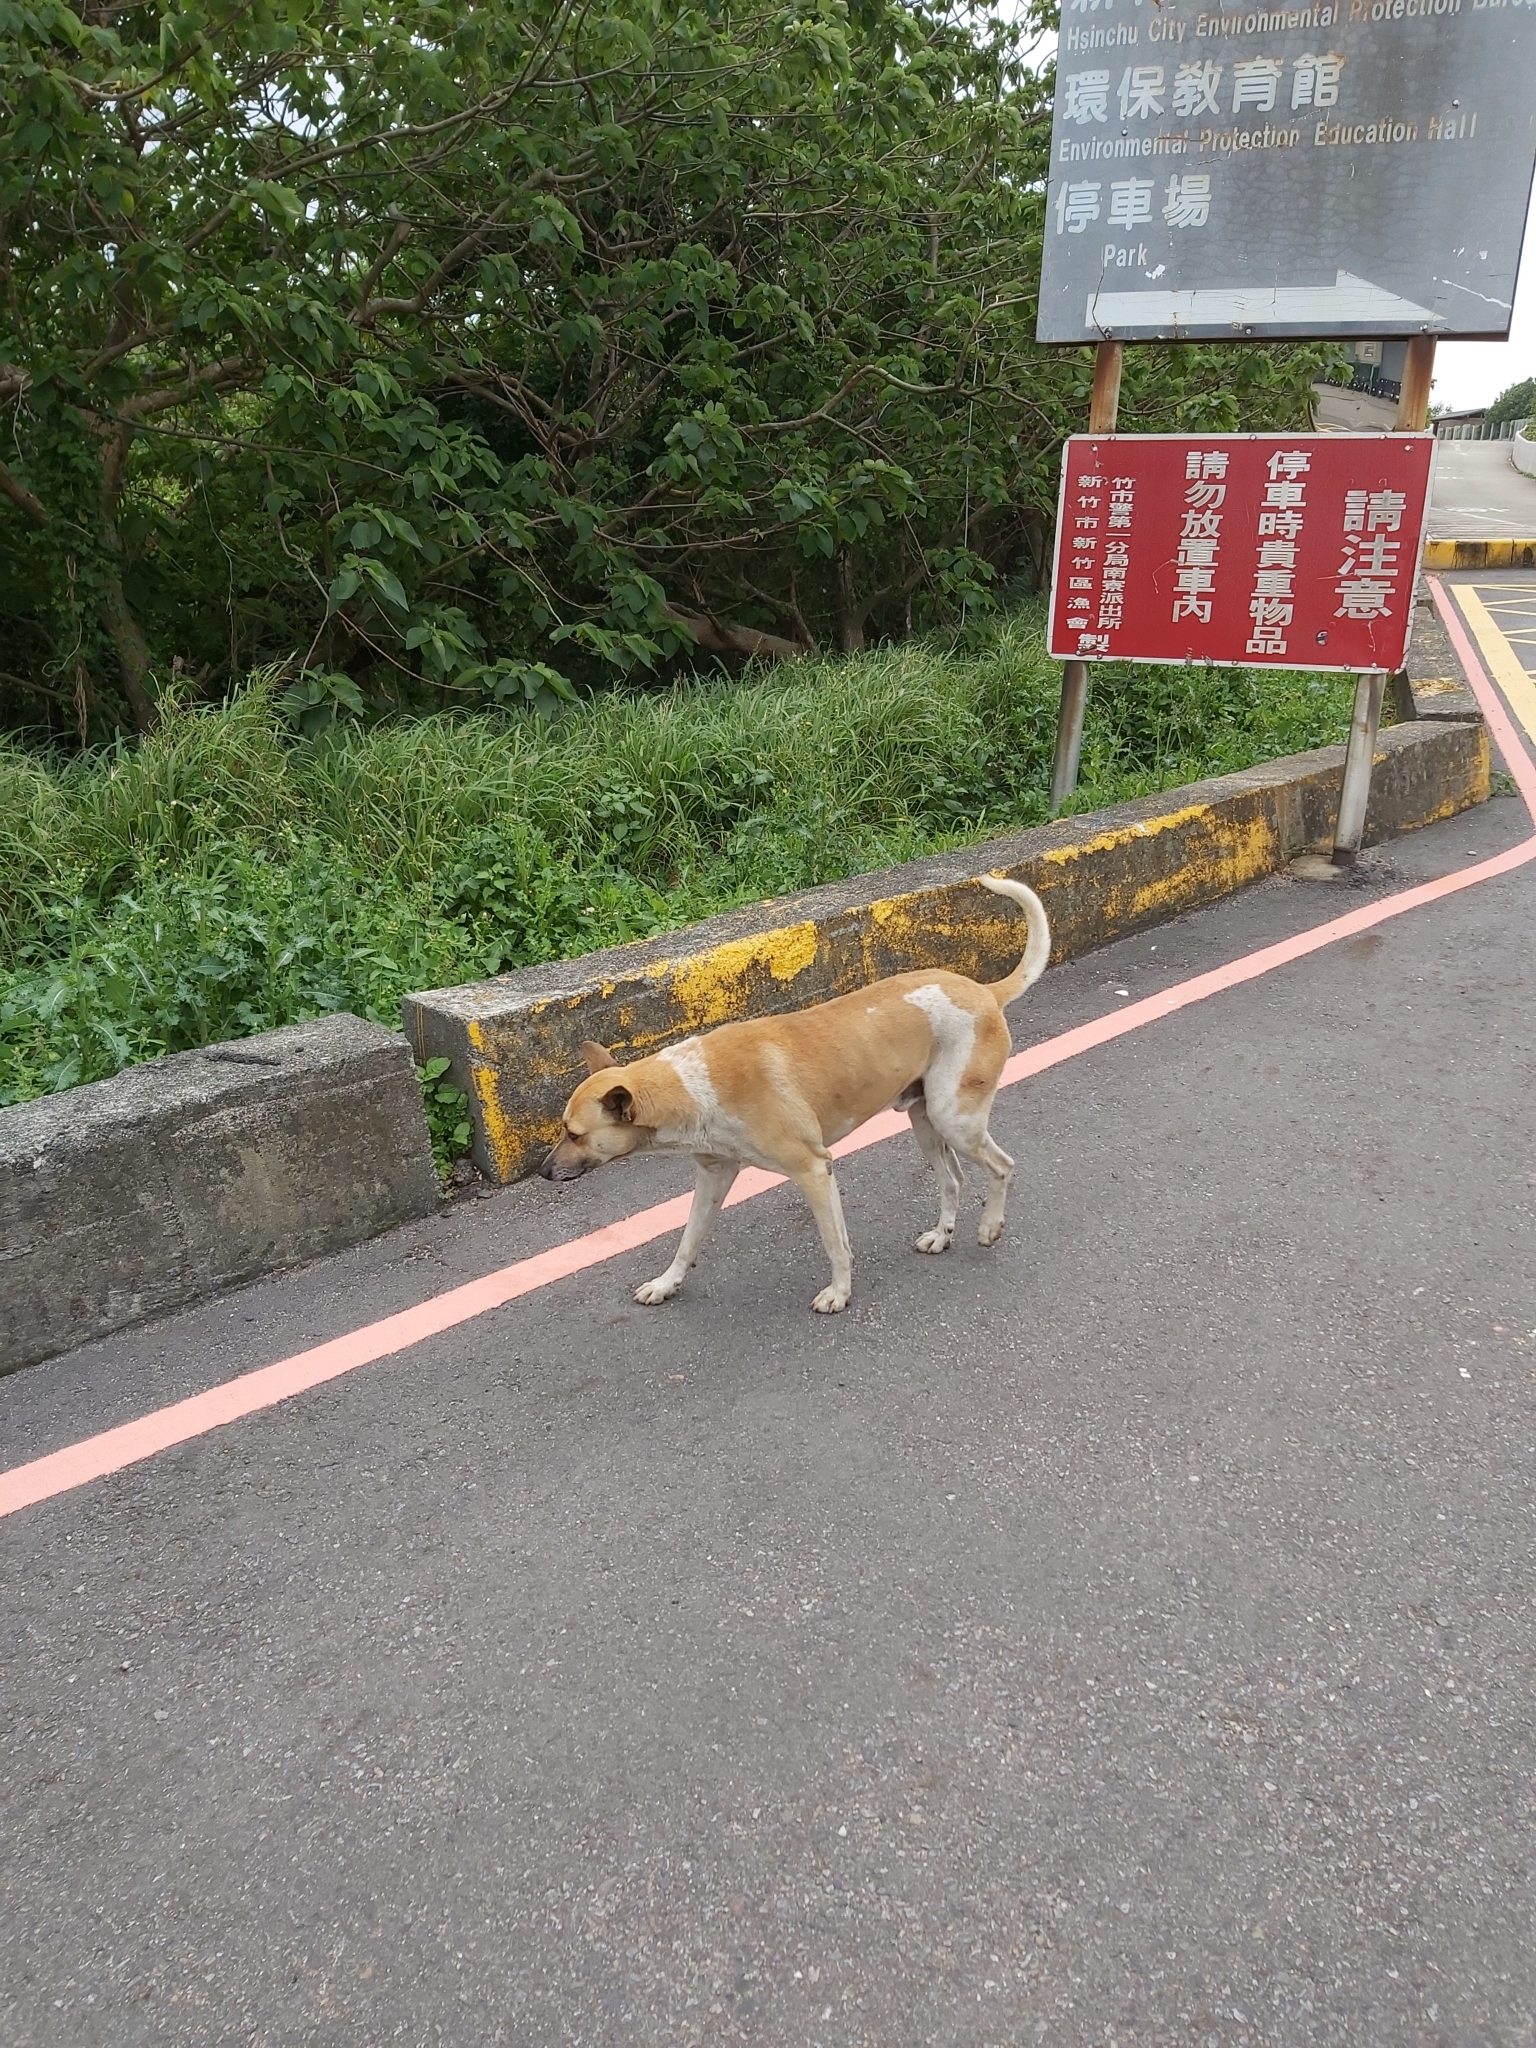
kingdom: Animalia
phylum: Chordata
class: Mammalia
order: Carnivora
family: Canidae
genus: Canis
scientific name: Canis lupus
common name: Gray wolf
